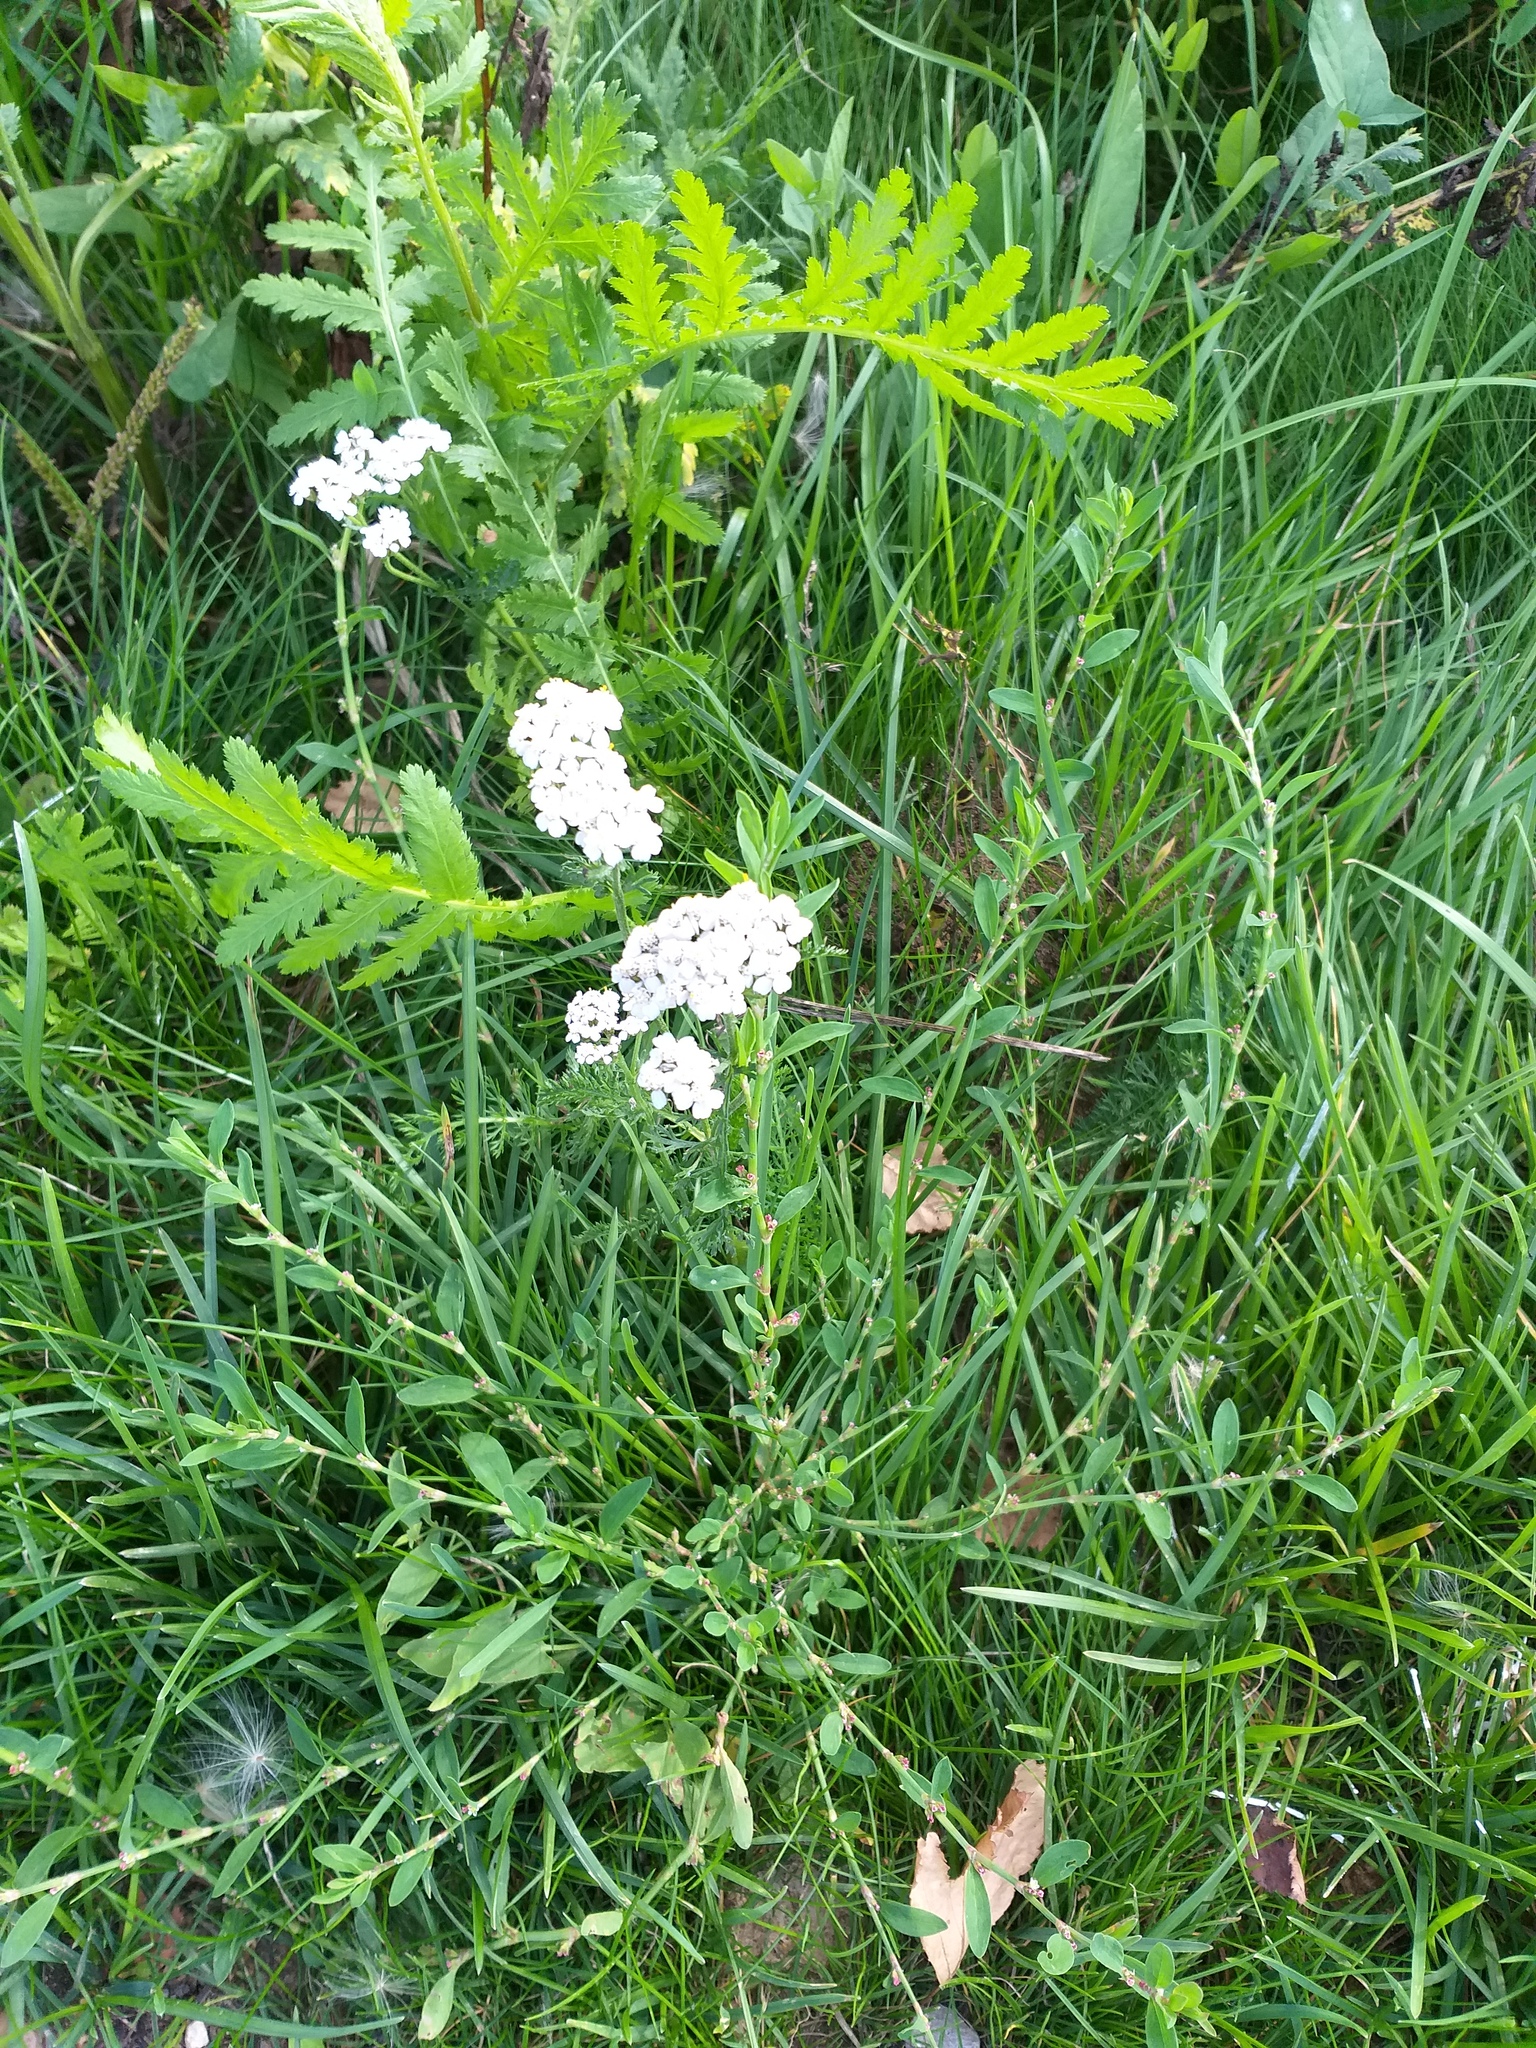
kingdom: Plantae
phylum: Tracheophyta
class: Magnoliopsida
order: Asterales
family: Asteraceae
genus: Achillea
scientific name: Achillea millefolium
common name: Yarrow
